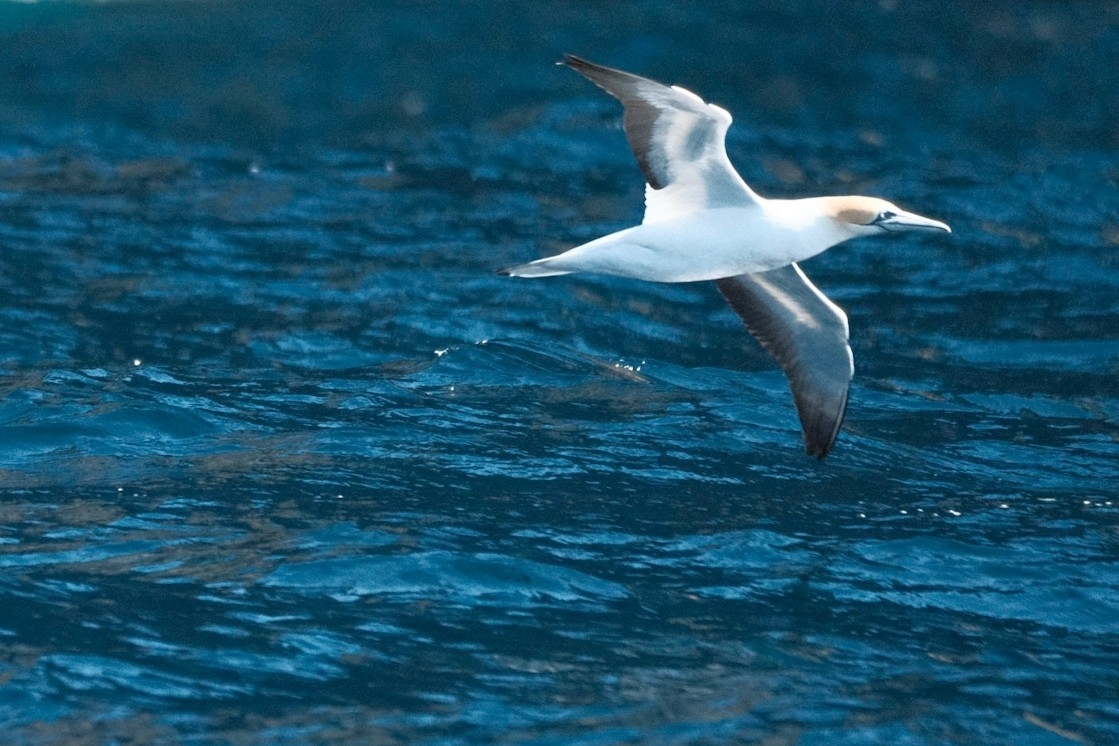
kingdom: Animalia
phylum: Chordata
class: Aves
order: Suliformes
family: Sulidae
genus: Morus
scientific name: Morus serrator
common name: Australasian gannet
